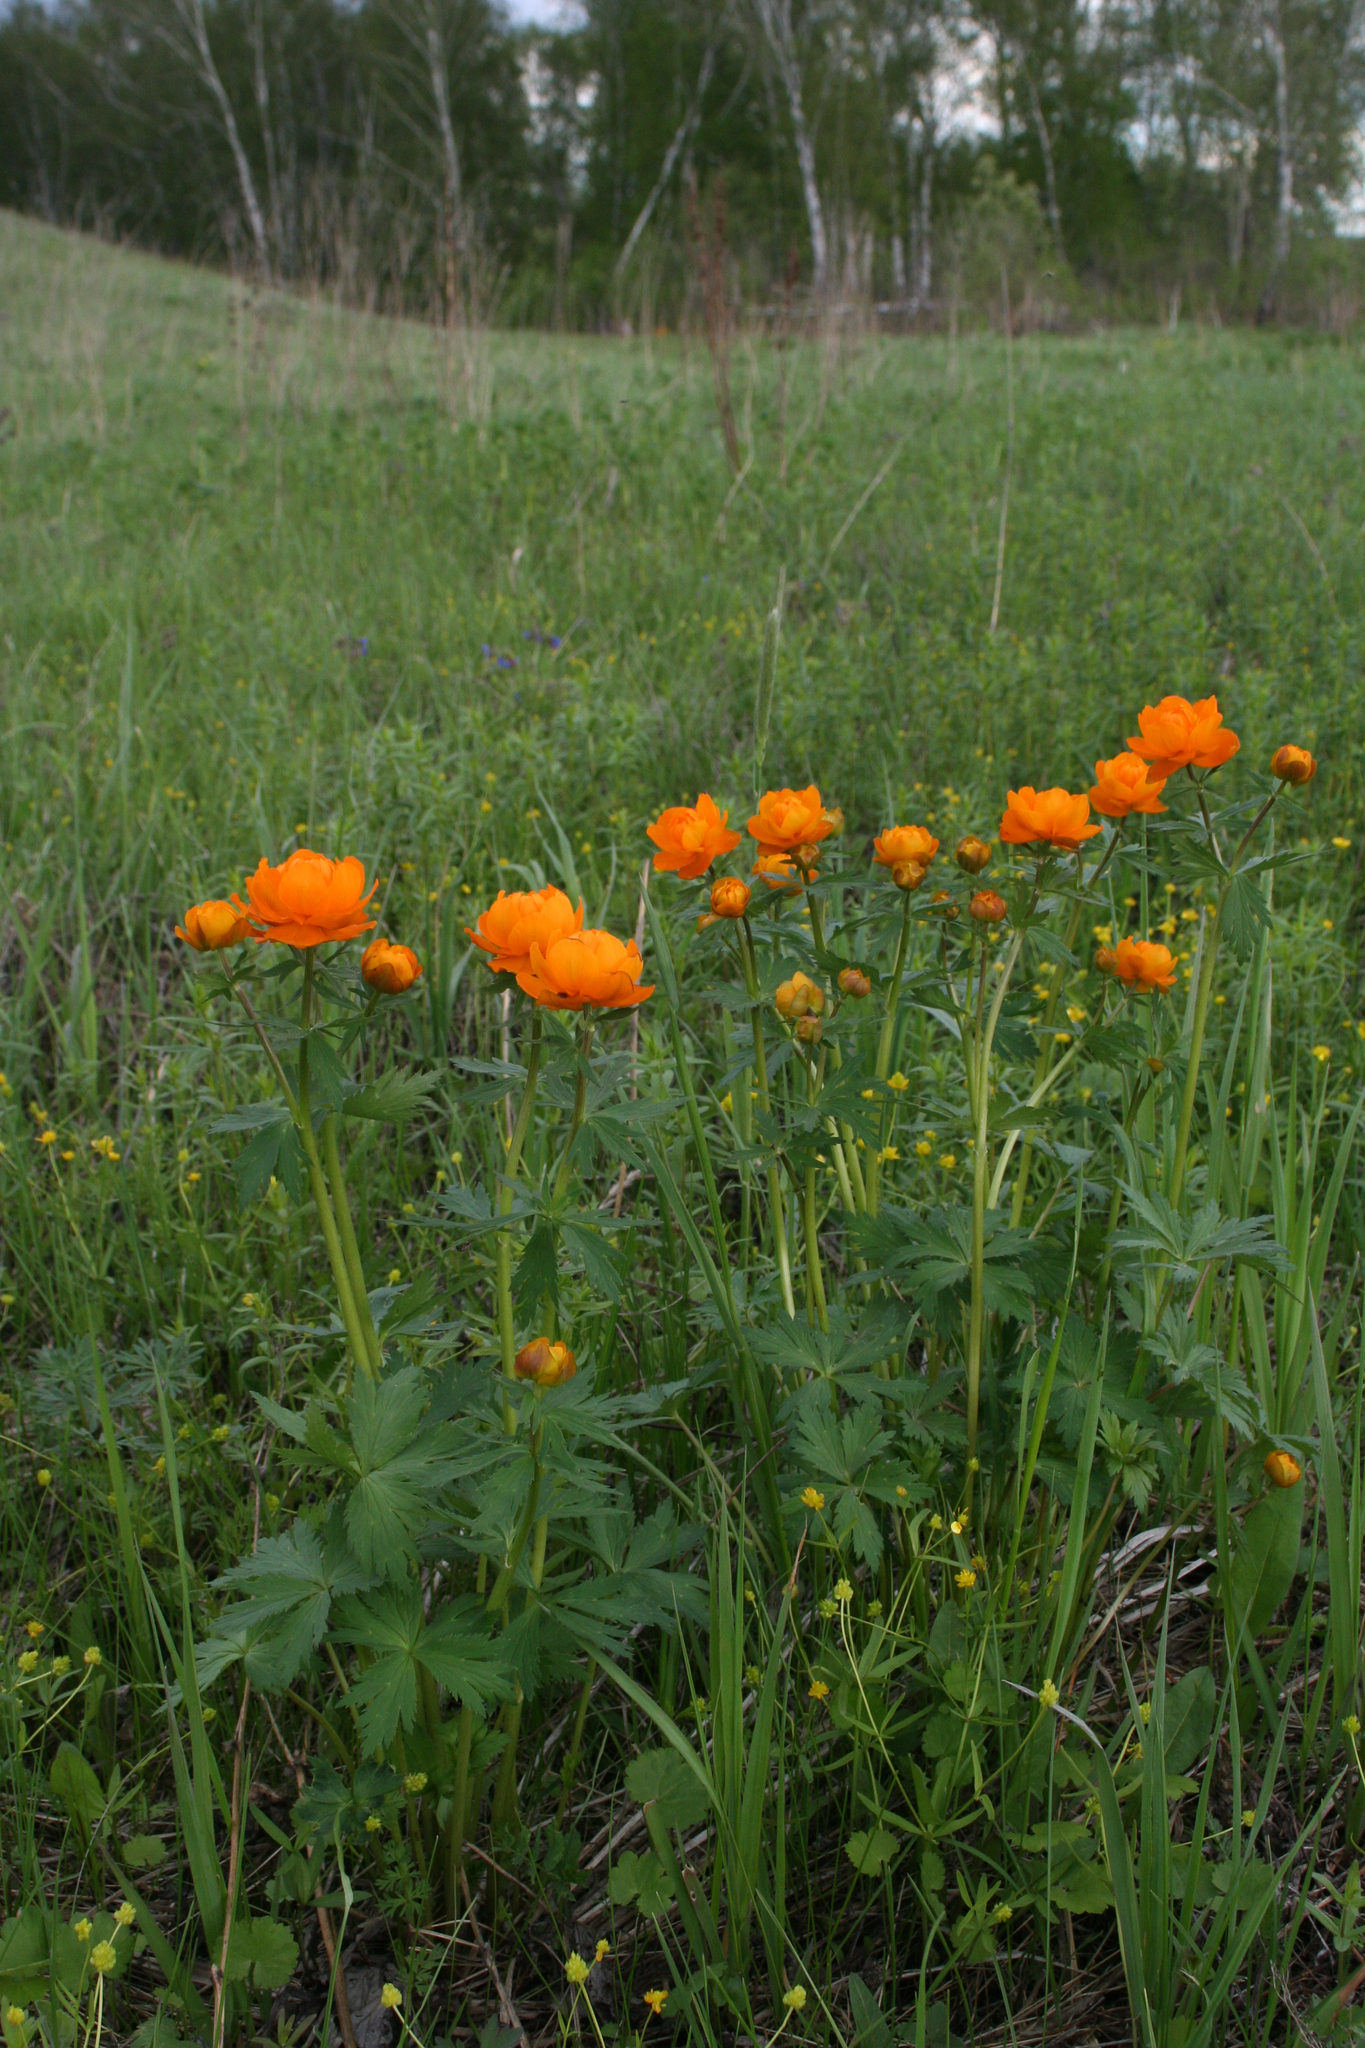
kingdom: Plantae
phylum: Tracheophyta
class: Magnoliopsida
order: Ranunculales
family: Ranunculaceae
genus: Trollius
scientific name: Trollius asiaticus
